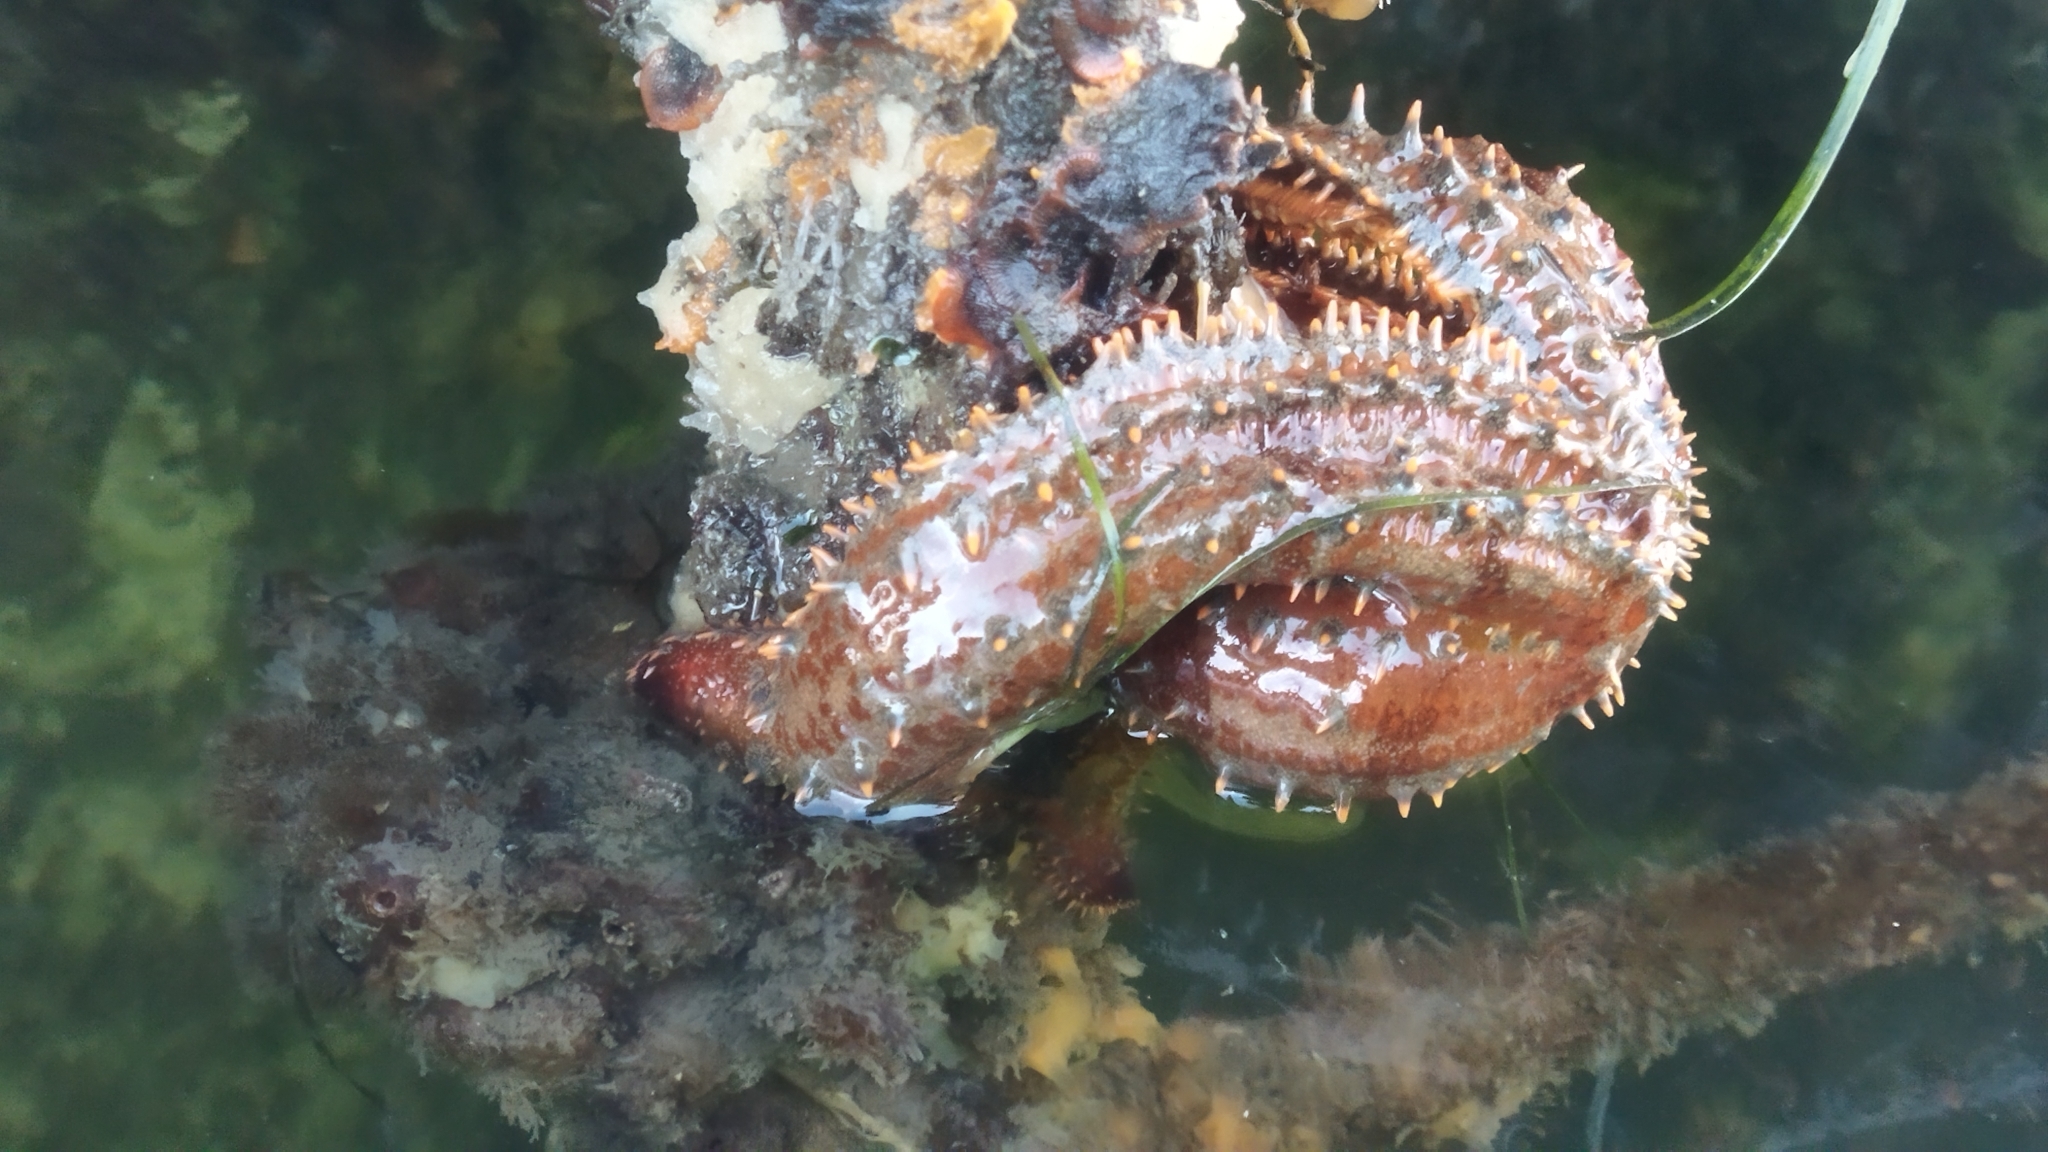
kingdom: Animalia
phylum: Echinodermata
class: Asteroidea
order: Forcipulatida
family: Asteriidae
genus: Marthasterias
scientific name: Marthasterias africana
